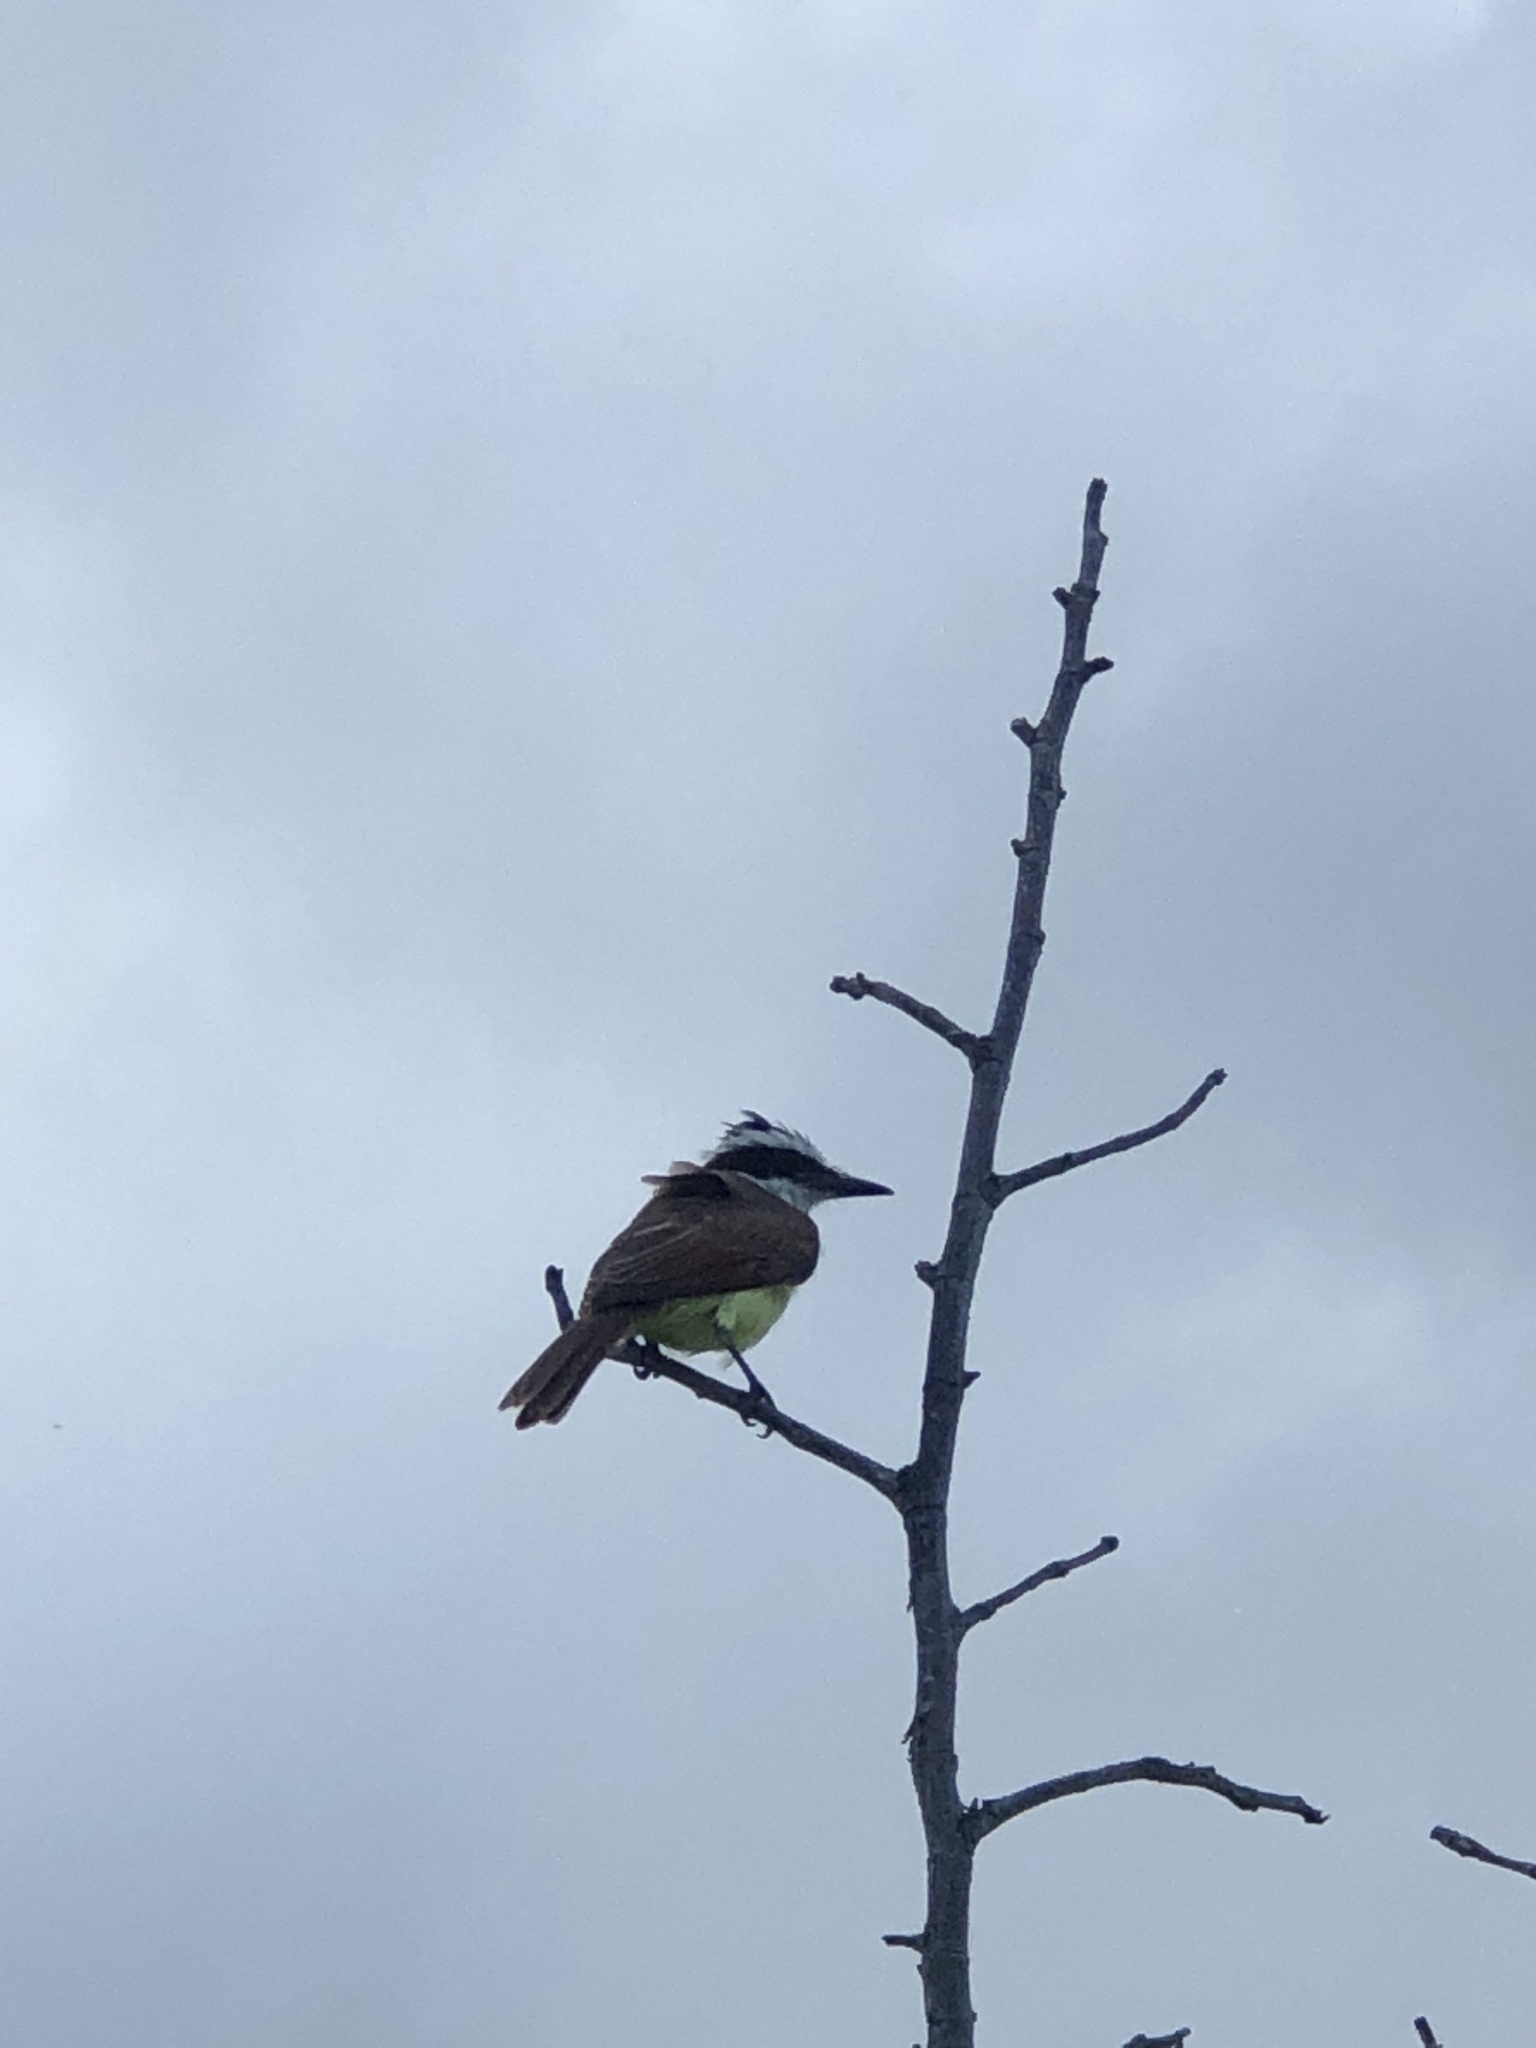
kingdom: Animalia
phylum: Chordata
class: Aves
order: Passeriformes
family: Tyrannidae
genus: Pitangus
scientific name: Pitangus sulphuratus
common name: Great kiskadee
